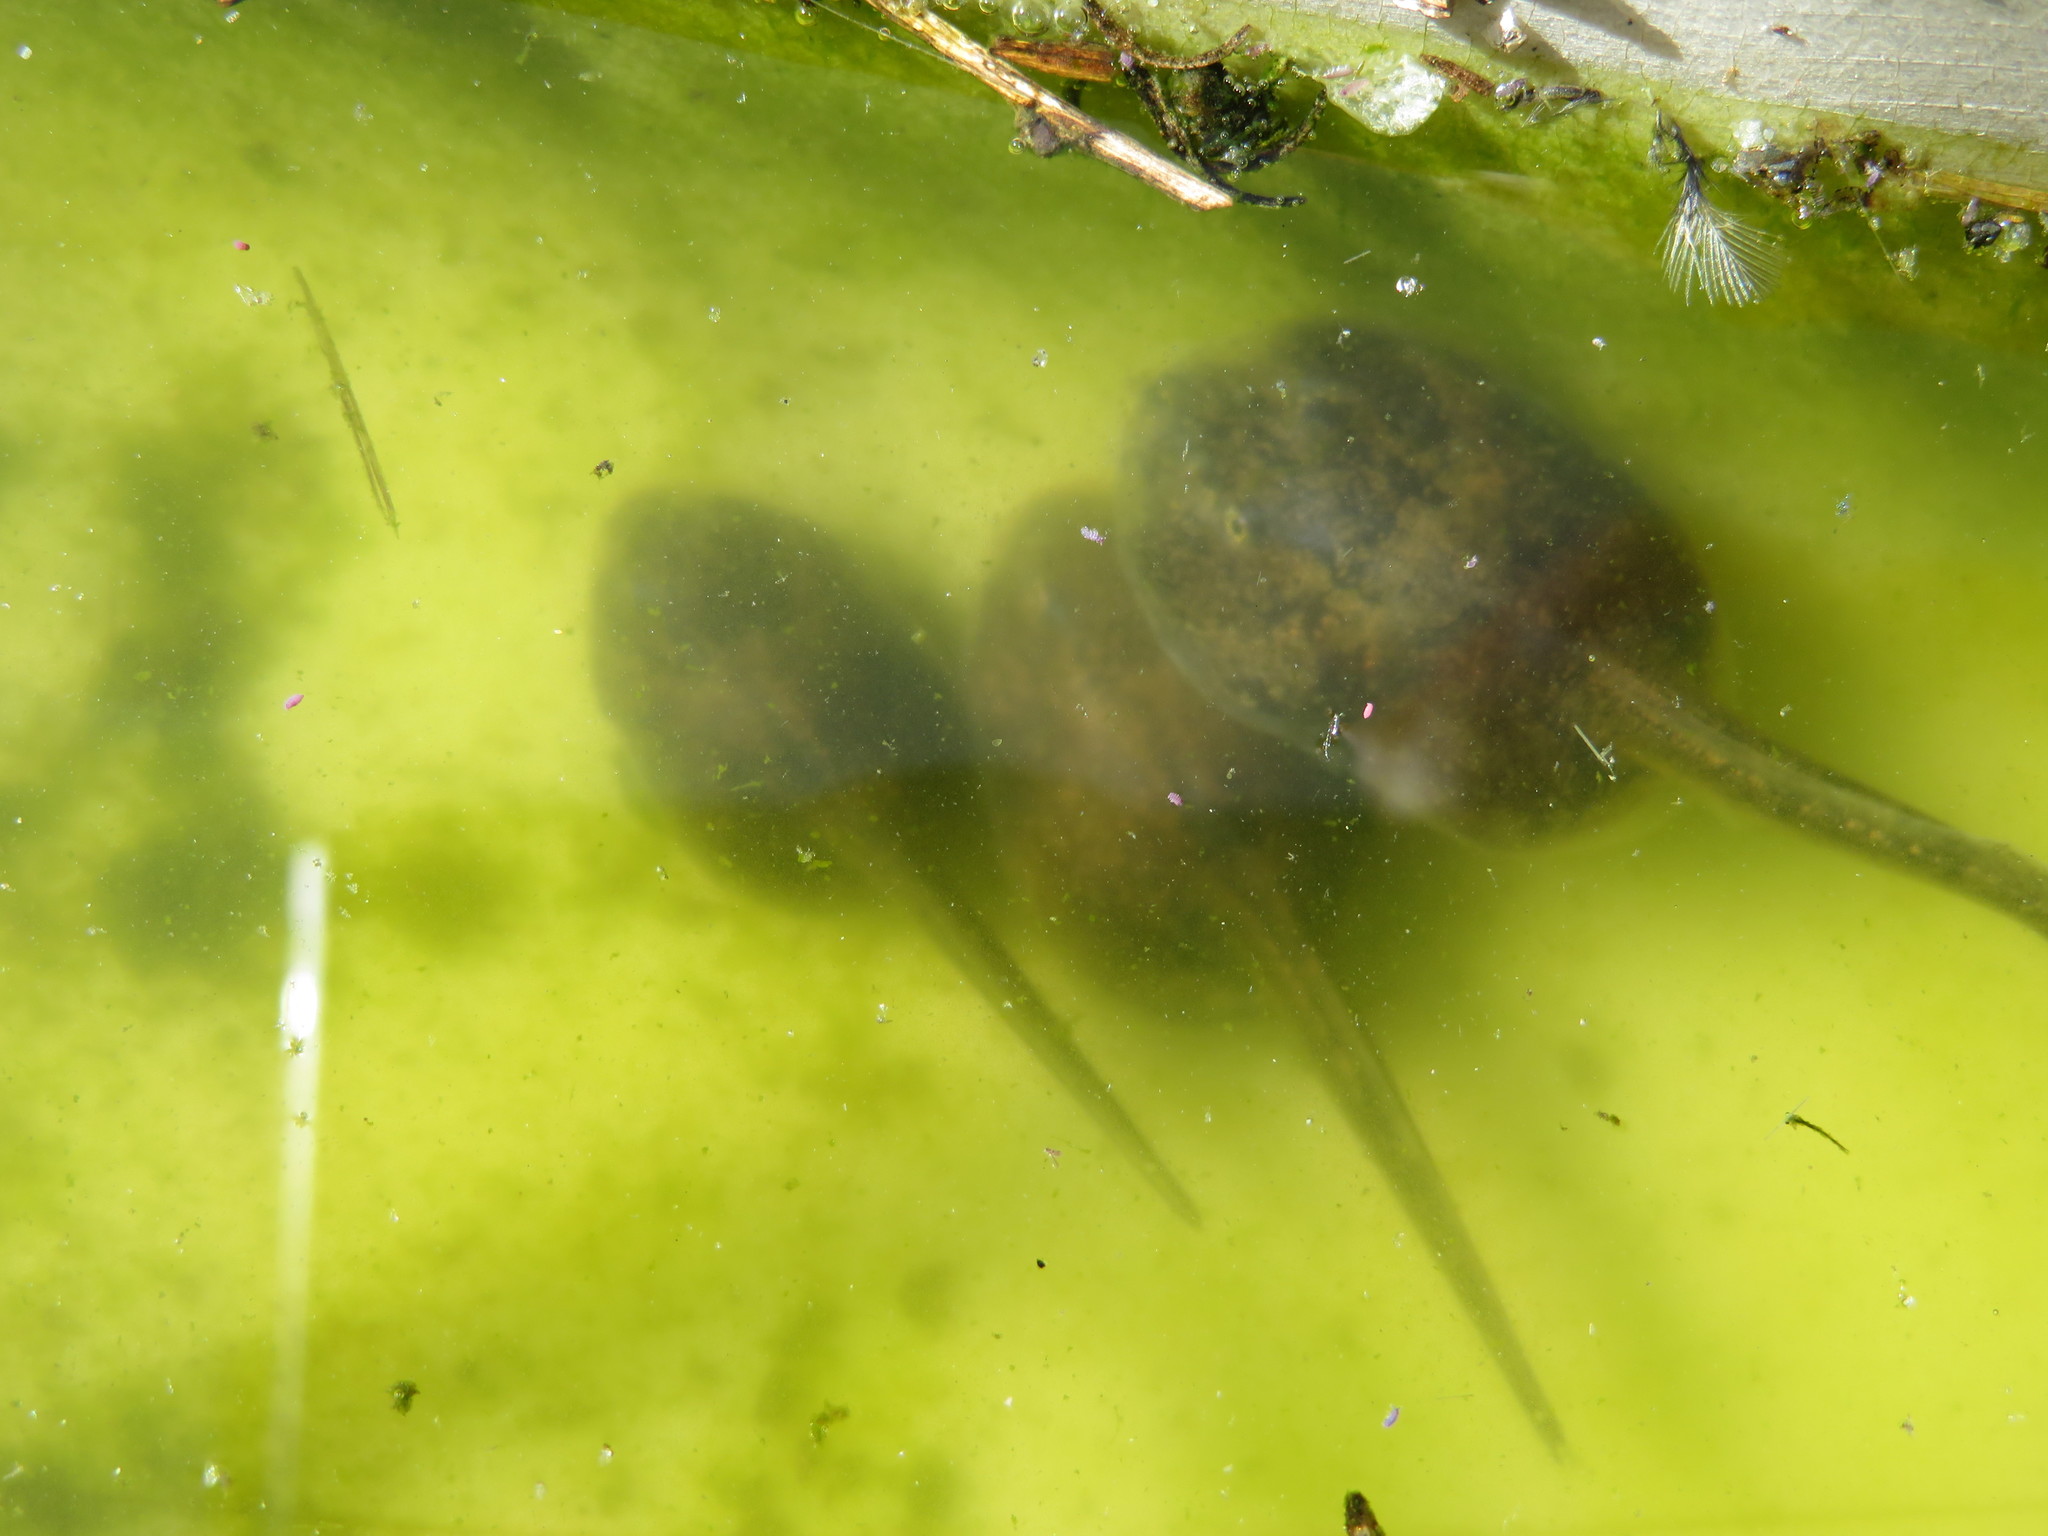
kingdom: Animalia
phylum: Chordata
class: Amphibia
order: Anura
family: Scaphiopodidae
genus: Spea
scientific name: Spea hammondii
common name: Western spadefoot toad
